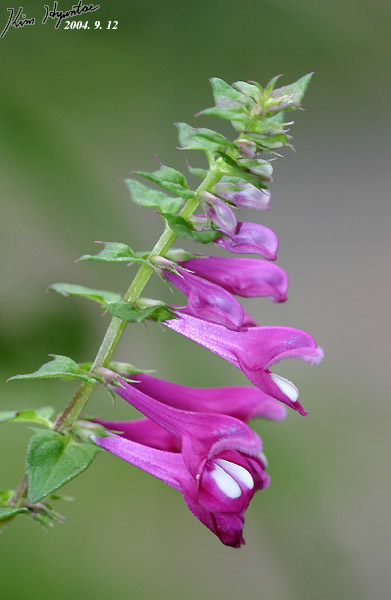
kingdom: Plantae
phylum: Tracheophyta
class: Magnoliopsida
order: Lamiales
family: Orobanchaceae
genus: Melampyrum
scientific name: Melampyrum roseum
